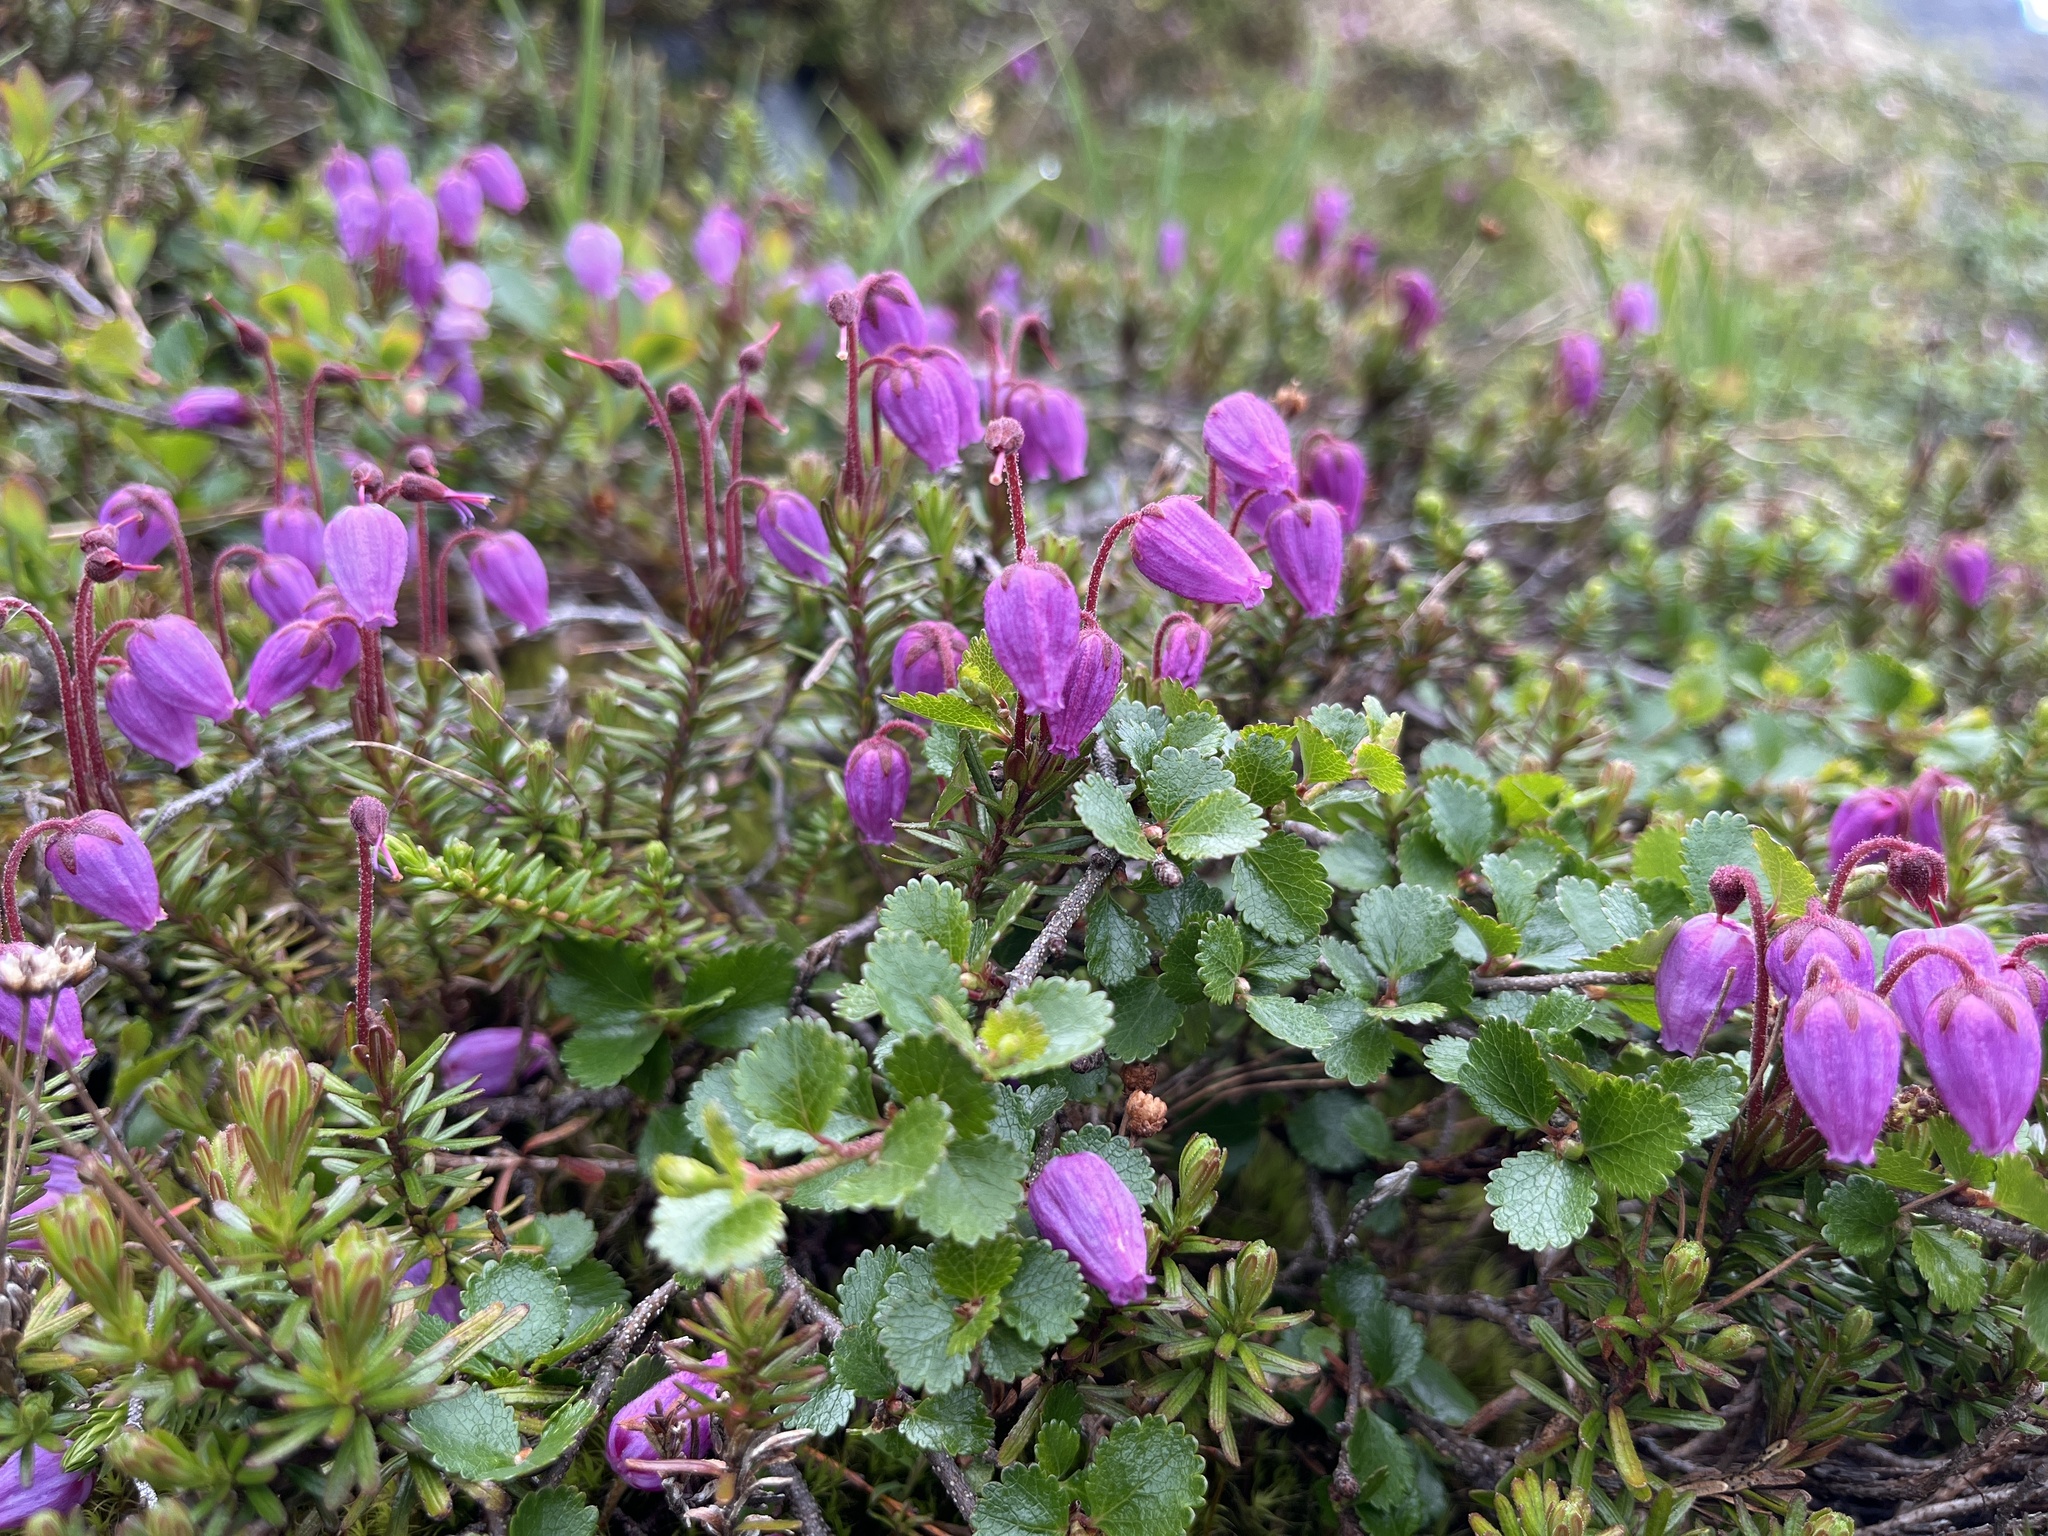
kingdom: Plantae
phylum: Tracheophyta
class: Magnoliopsida
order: Ericales
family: Ericaceae
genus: Phyllodoce
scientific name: Phyllodoce caerulea
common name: Blue heath
